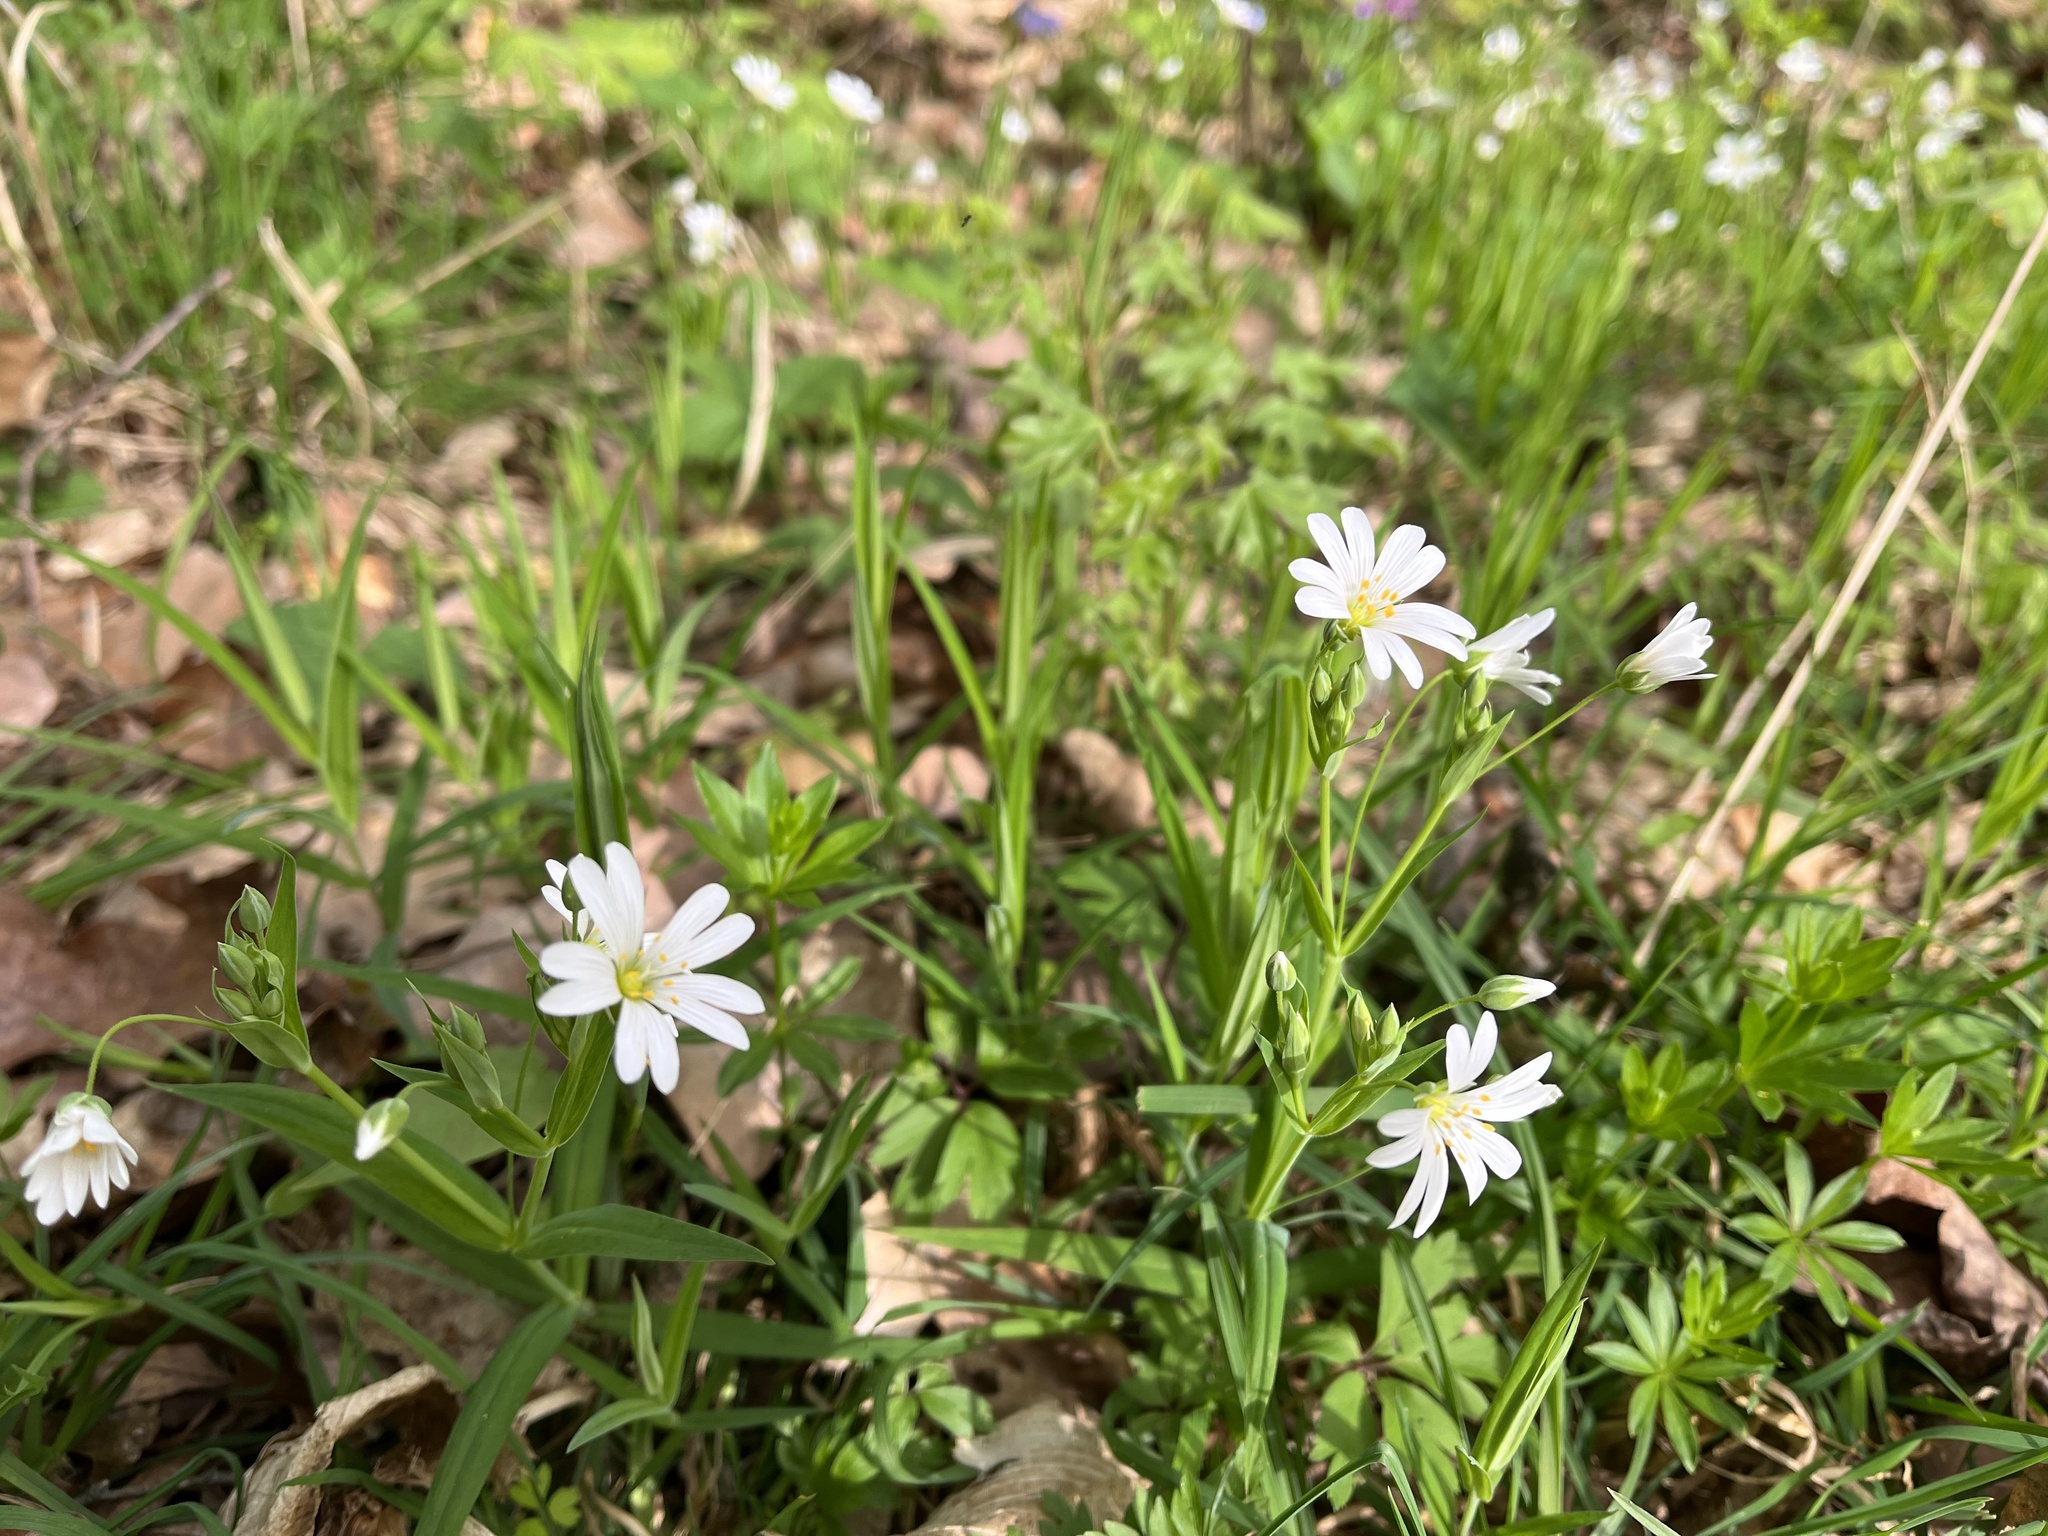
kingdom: Plantae
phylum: Tracheophyta
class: Magnoliopsida
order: Caryophyllales
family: Caryophyllaceae
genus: Rabelera
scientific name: Rabelera holostea
